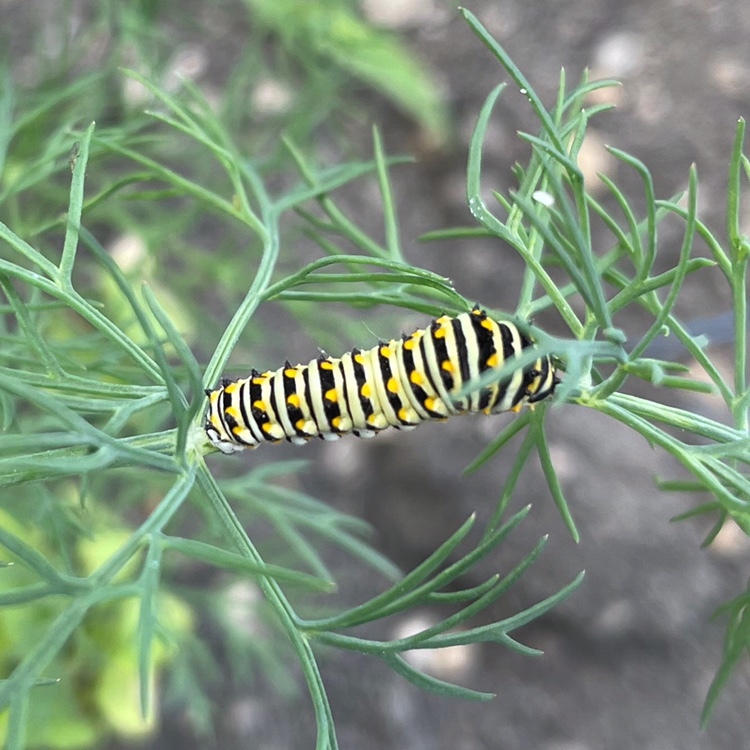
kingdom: Animalia
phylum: Arthropoda
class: Insecta
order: Lepidoptera
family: Papilionidae
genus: Papilio
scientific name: Papilio polyxenes
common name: Black swallowtail
